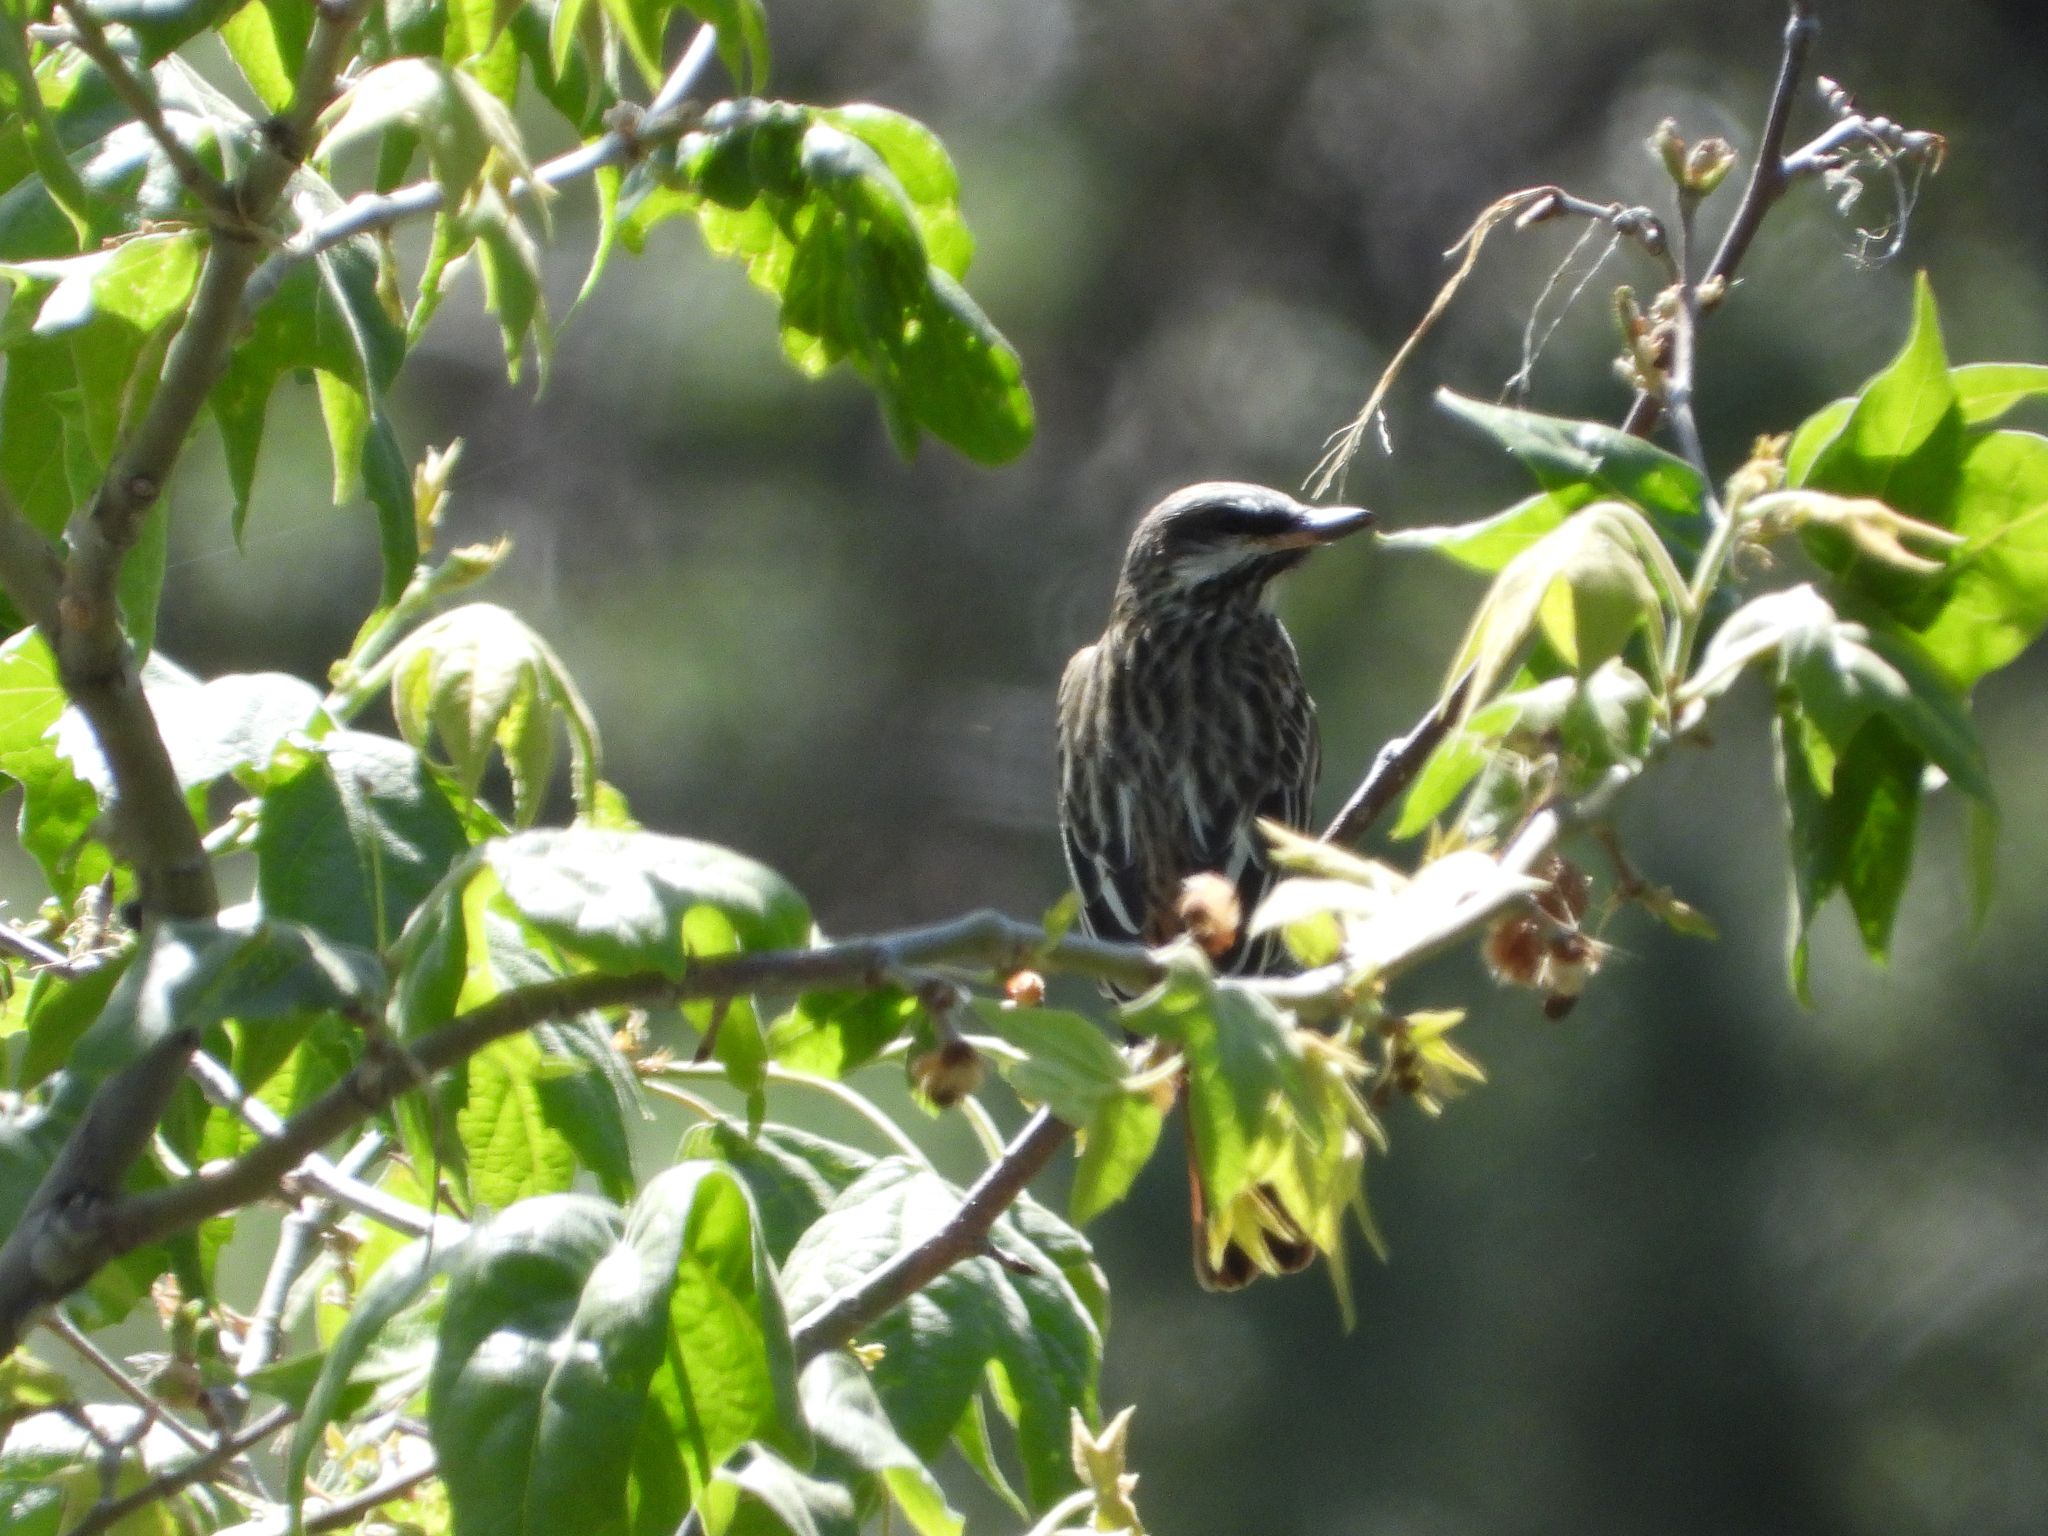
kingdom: Animalia
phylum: Chordata
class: Aves
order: Passeriformes
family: Tyrannidae
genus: Myiodynastes
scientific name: Myiodynastes luteiventris
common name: Sulphur-bellied flycatcher
